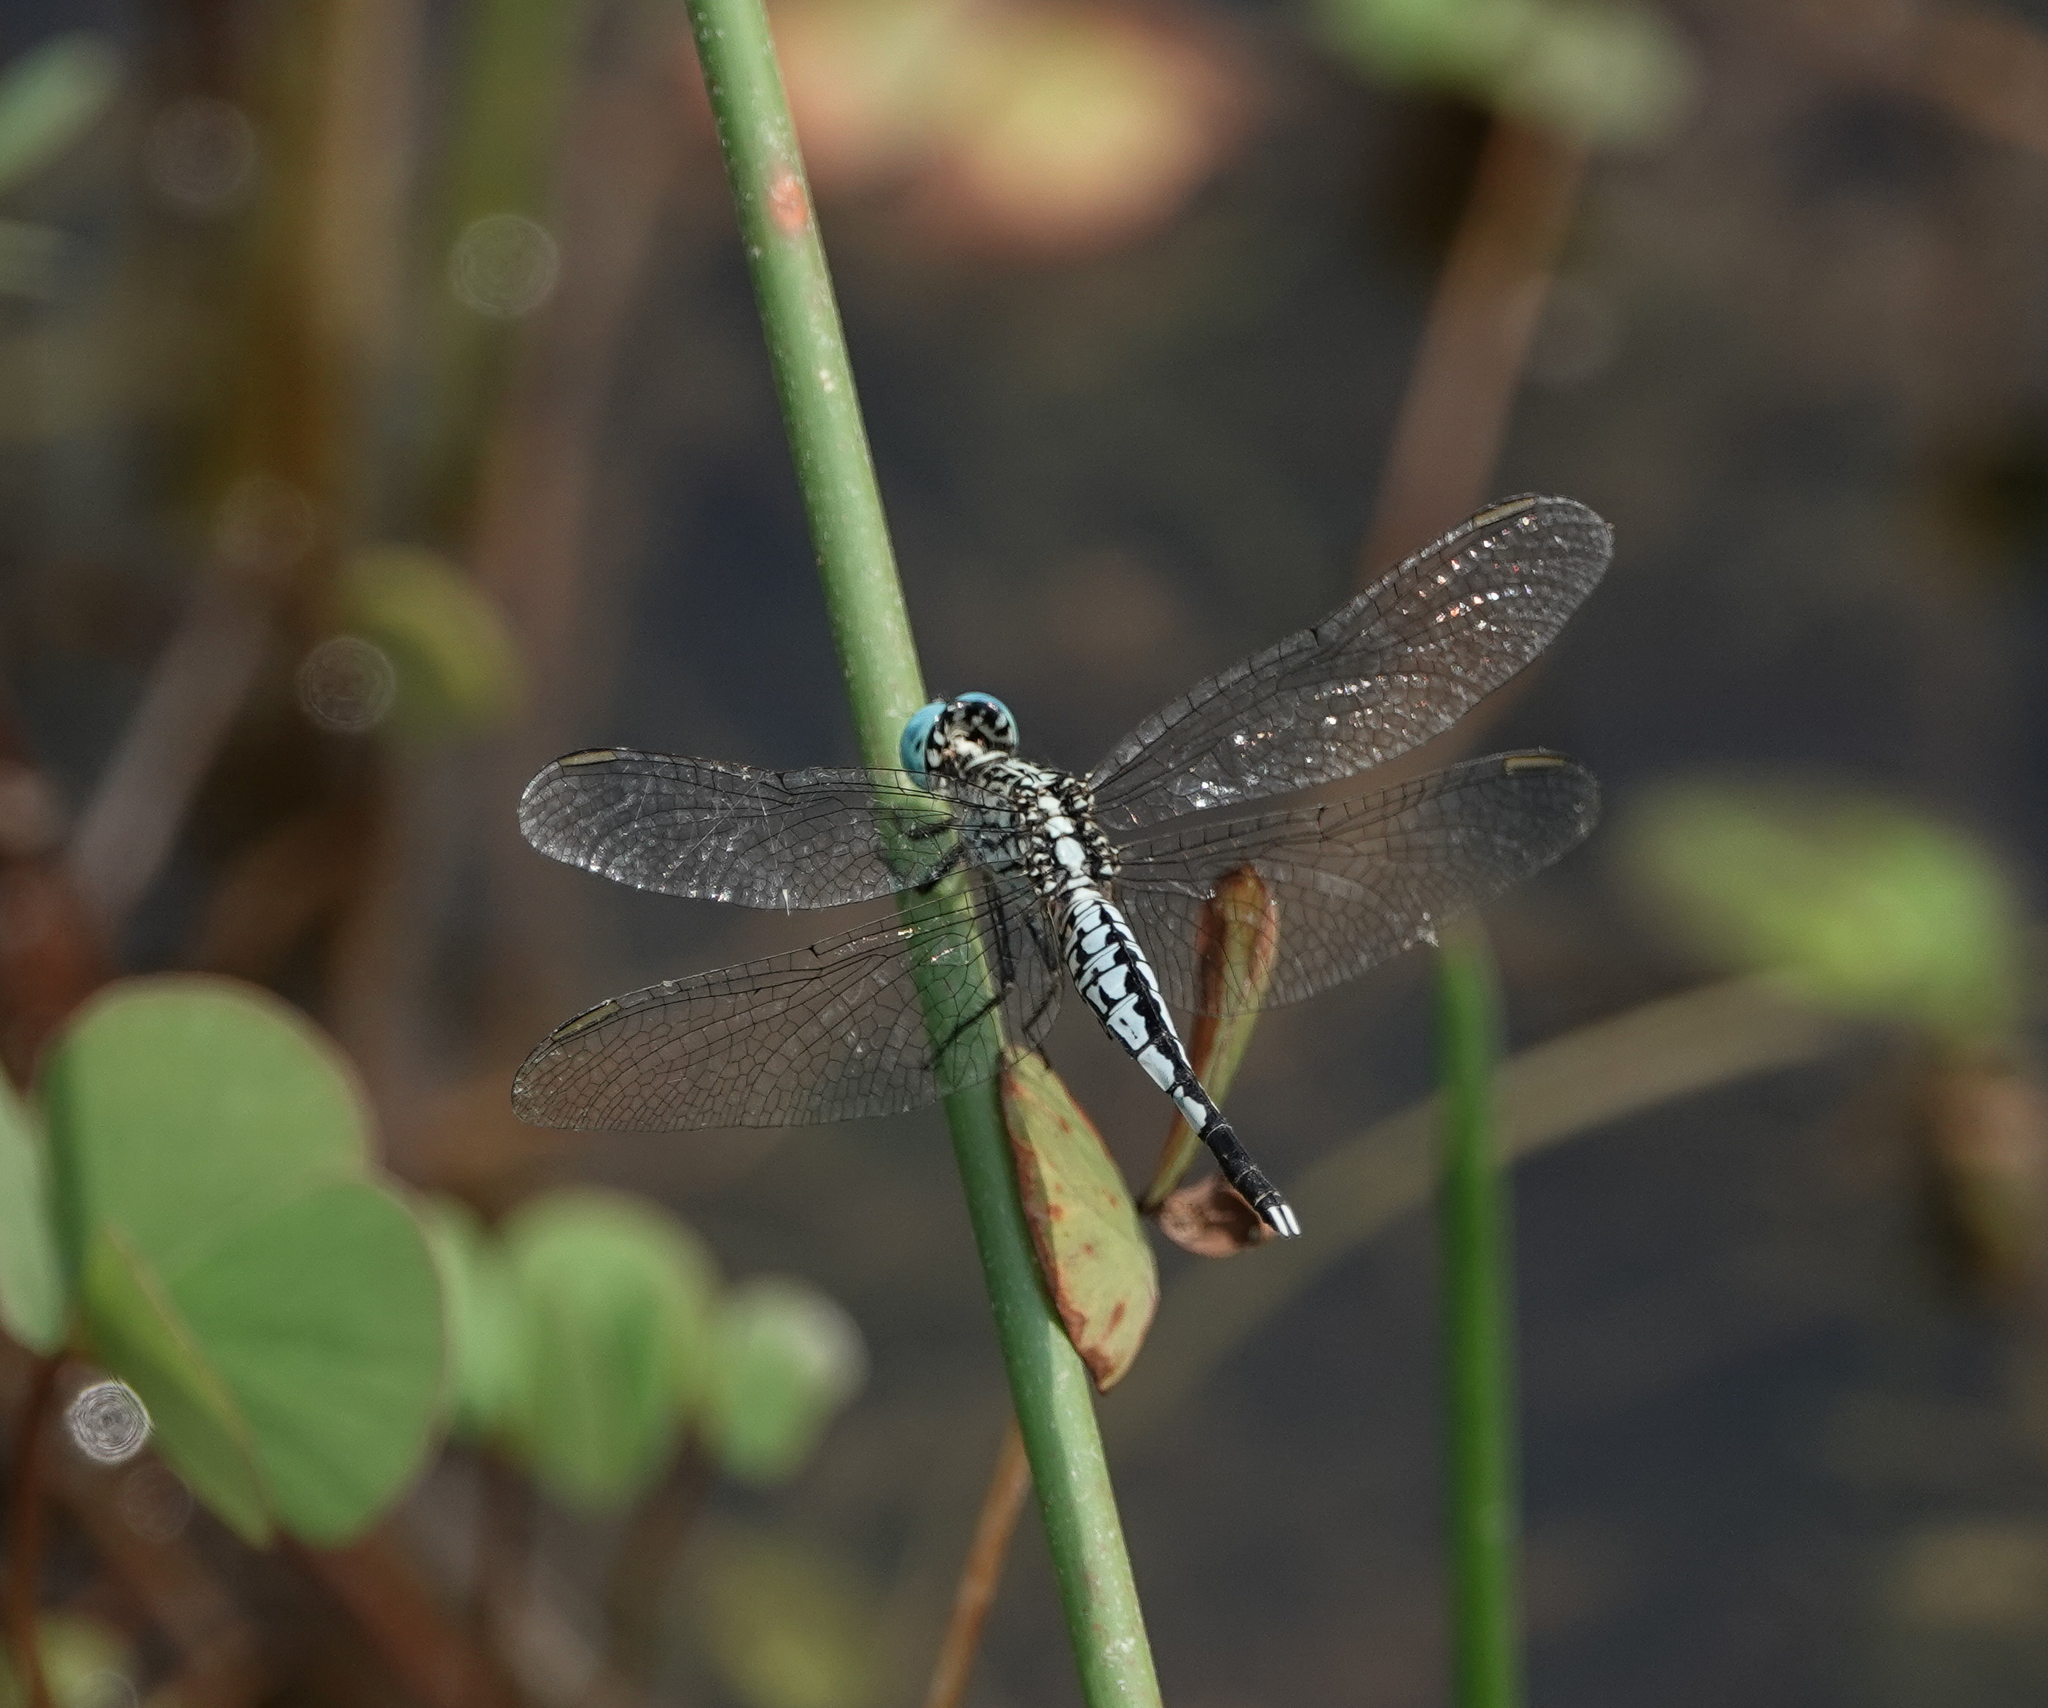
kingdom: Animalia
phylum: Arthropoda
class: Insecta
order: Odonata
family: Libellulidae
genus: Acisoma
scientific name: Acisoma panorpoides
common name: Asian pintail
